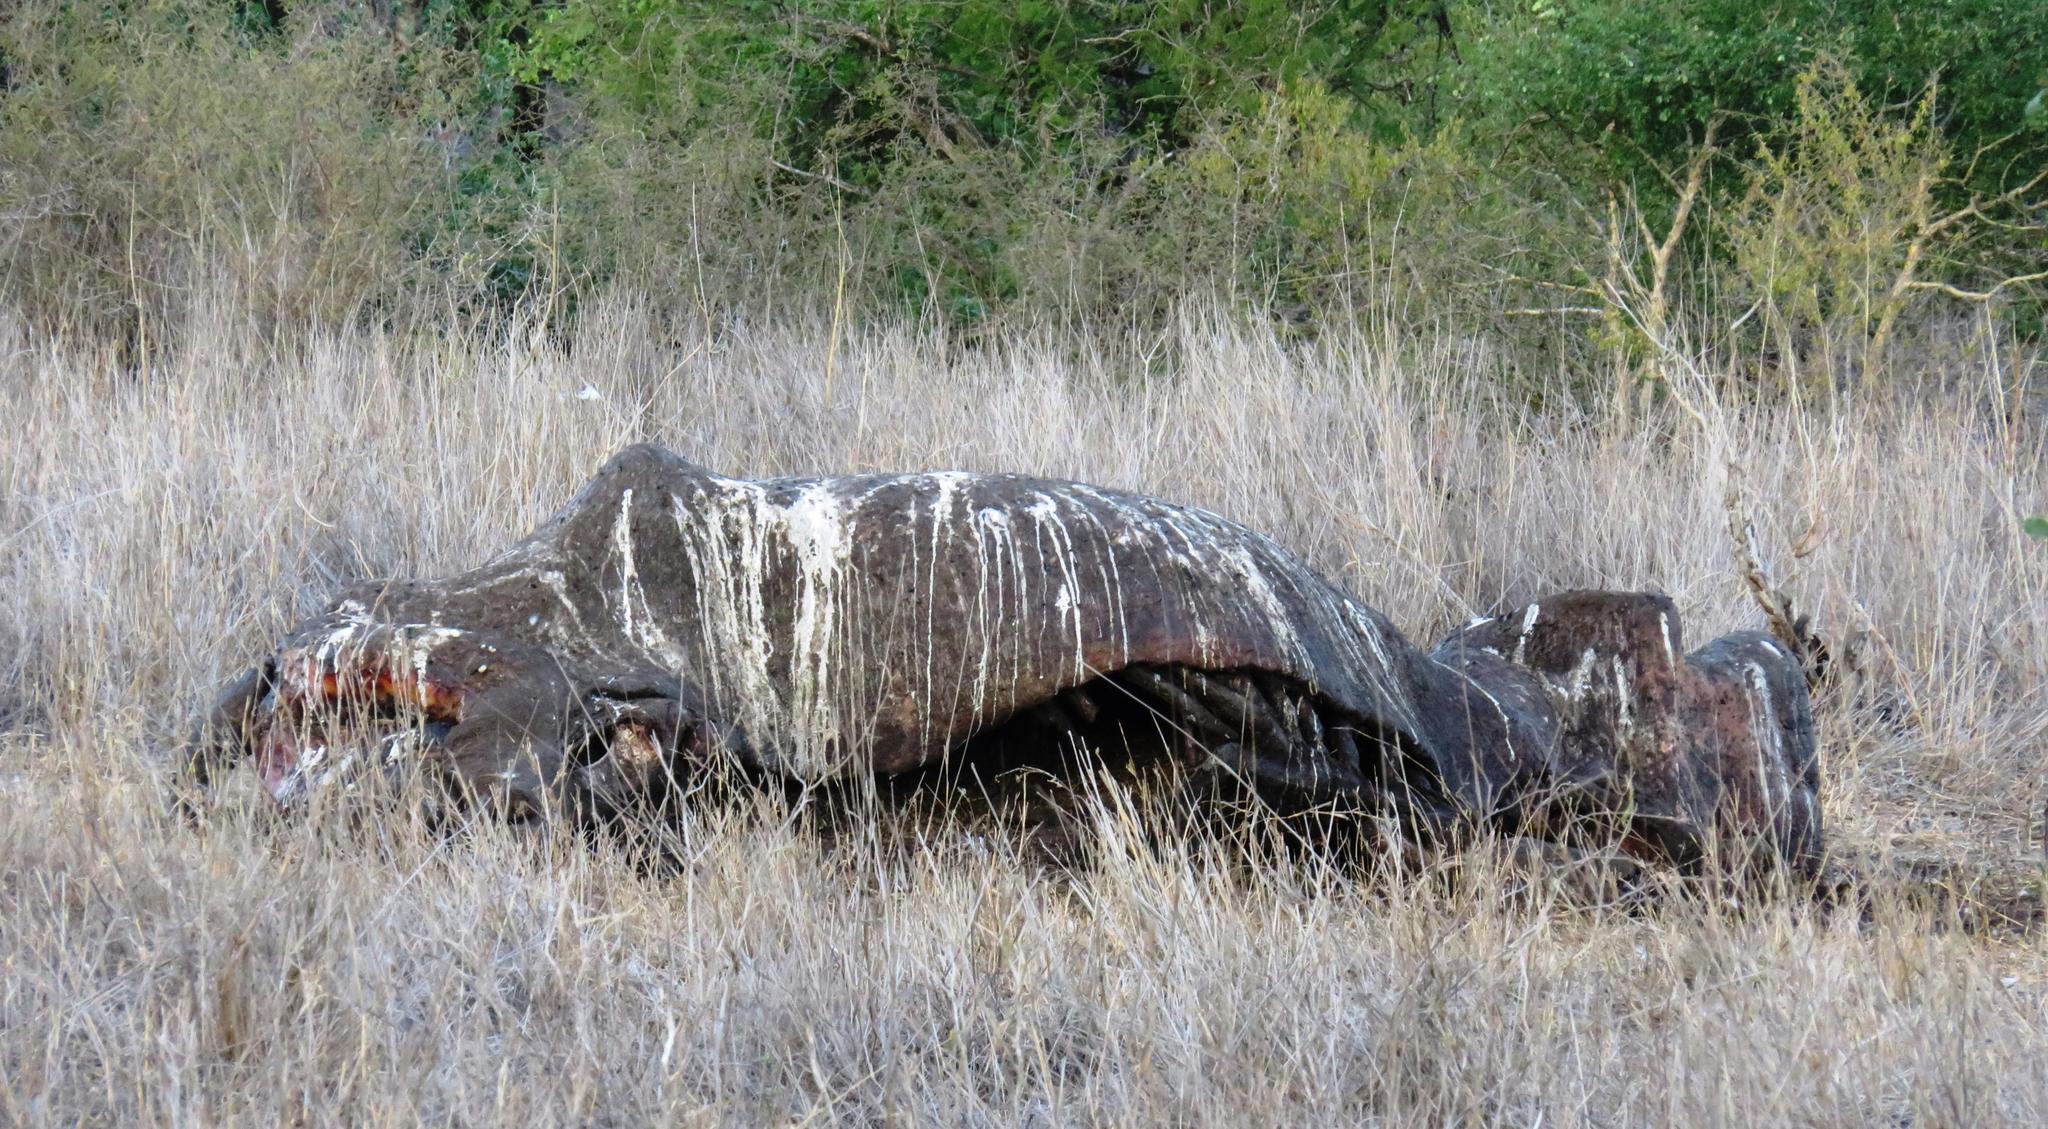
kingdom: Animalia
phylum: Chordata
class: Mammalia
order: Artiodactyla
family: Hippopotamidae
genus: Hippopotamus
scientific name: Hippopotamus amphibius
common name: Common hippopotamus
